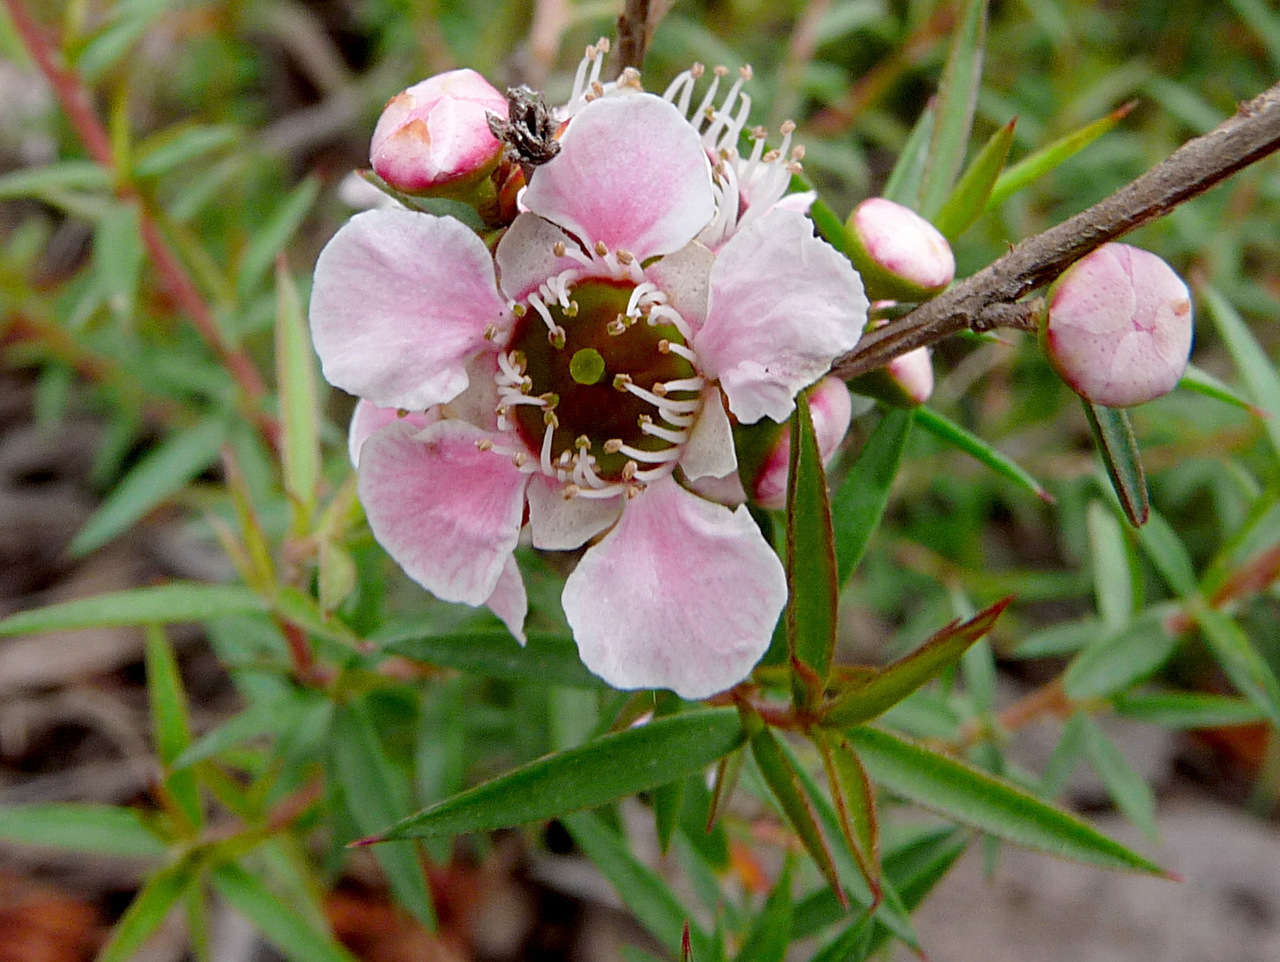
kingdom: Plantae
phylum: Tracheophyta
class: Magnoliopsida
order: Myrtales
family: Myrtaceae
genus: Leptospermum
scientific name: Leptospermum continentale
